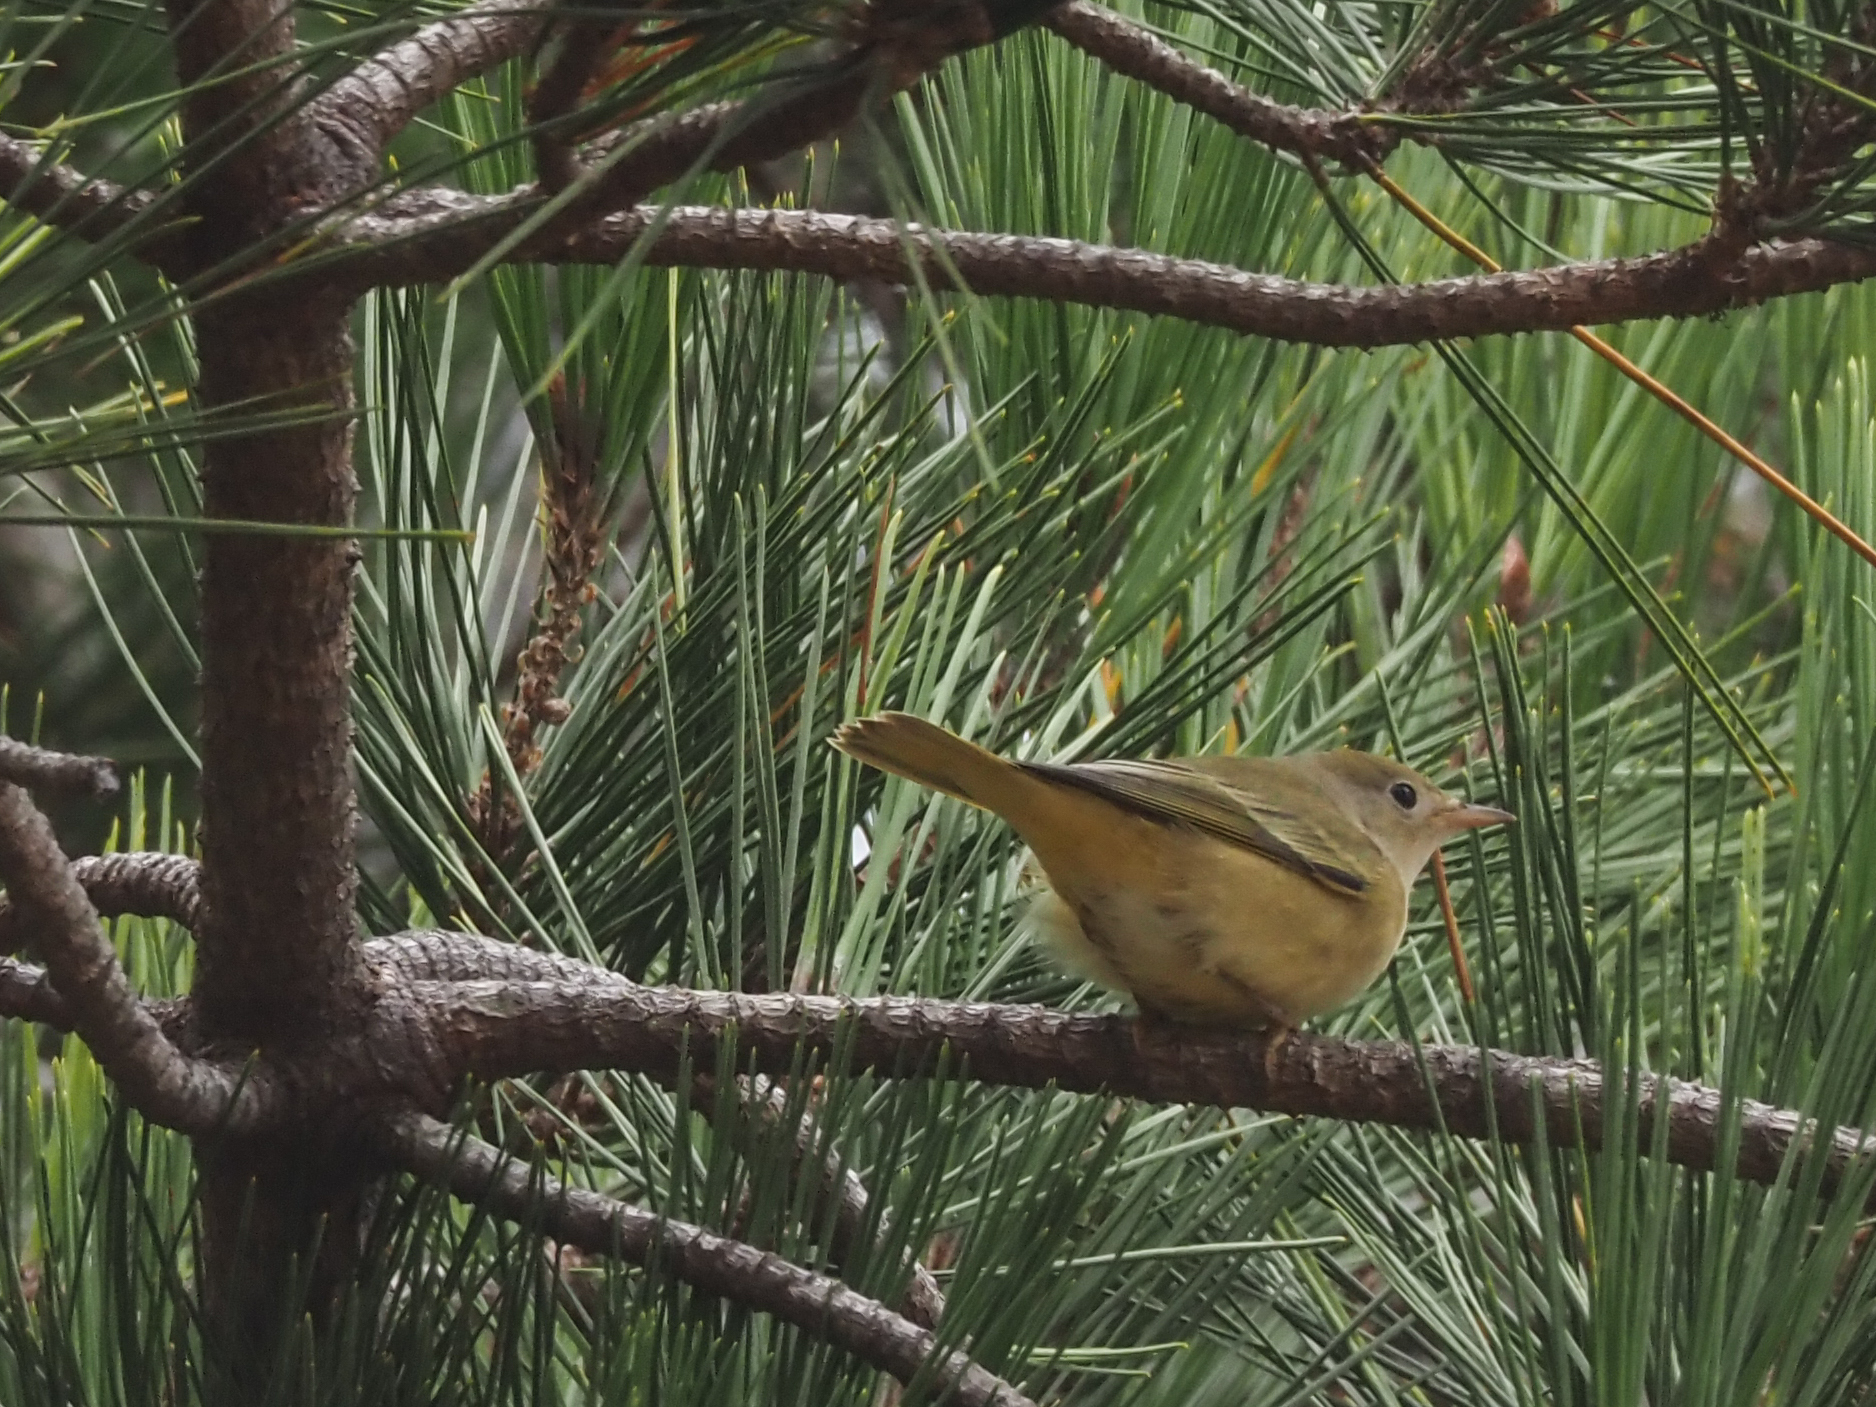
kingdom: Animalia
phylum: Chordata
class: Aves
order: Passeriformes
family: Parulidae
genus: Setophaga
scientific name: Setophaga petechia
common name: Yellow warbler
